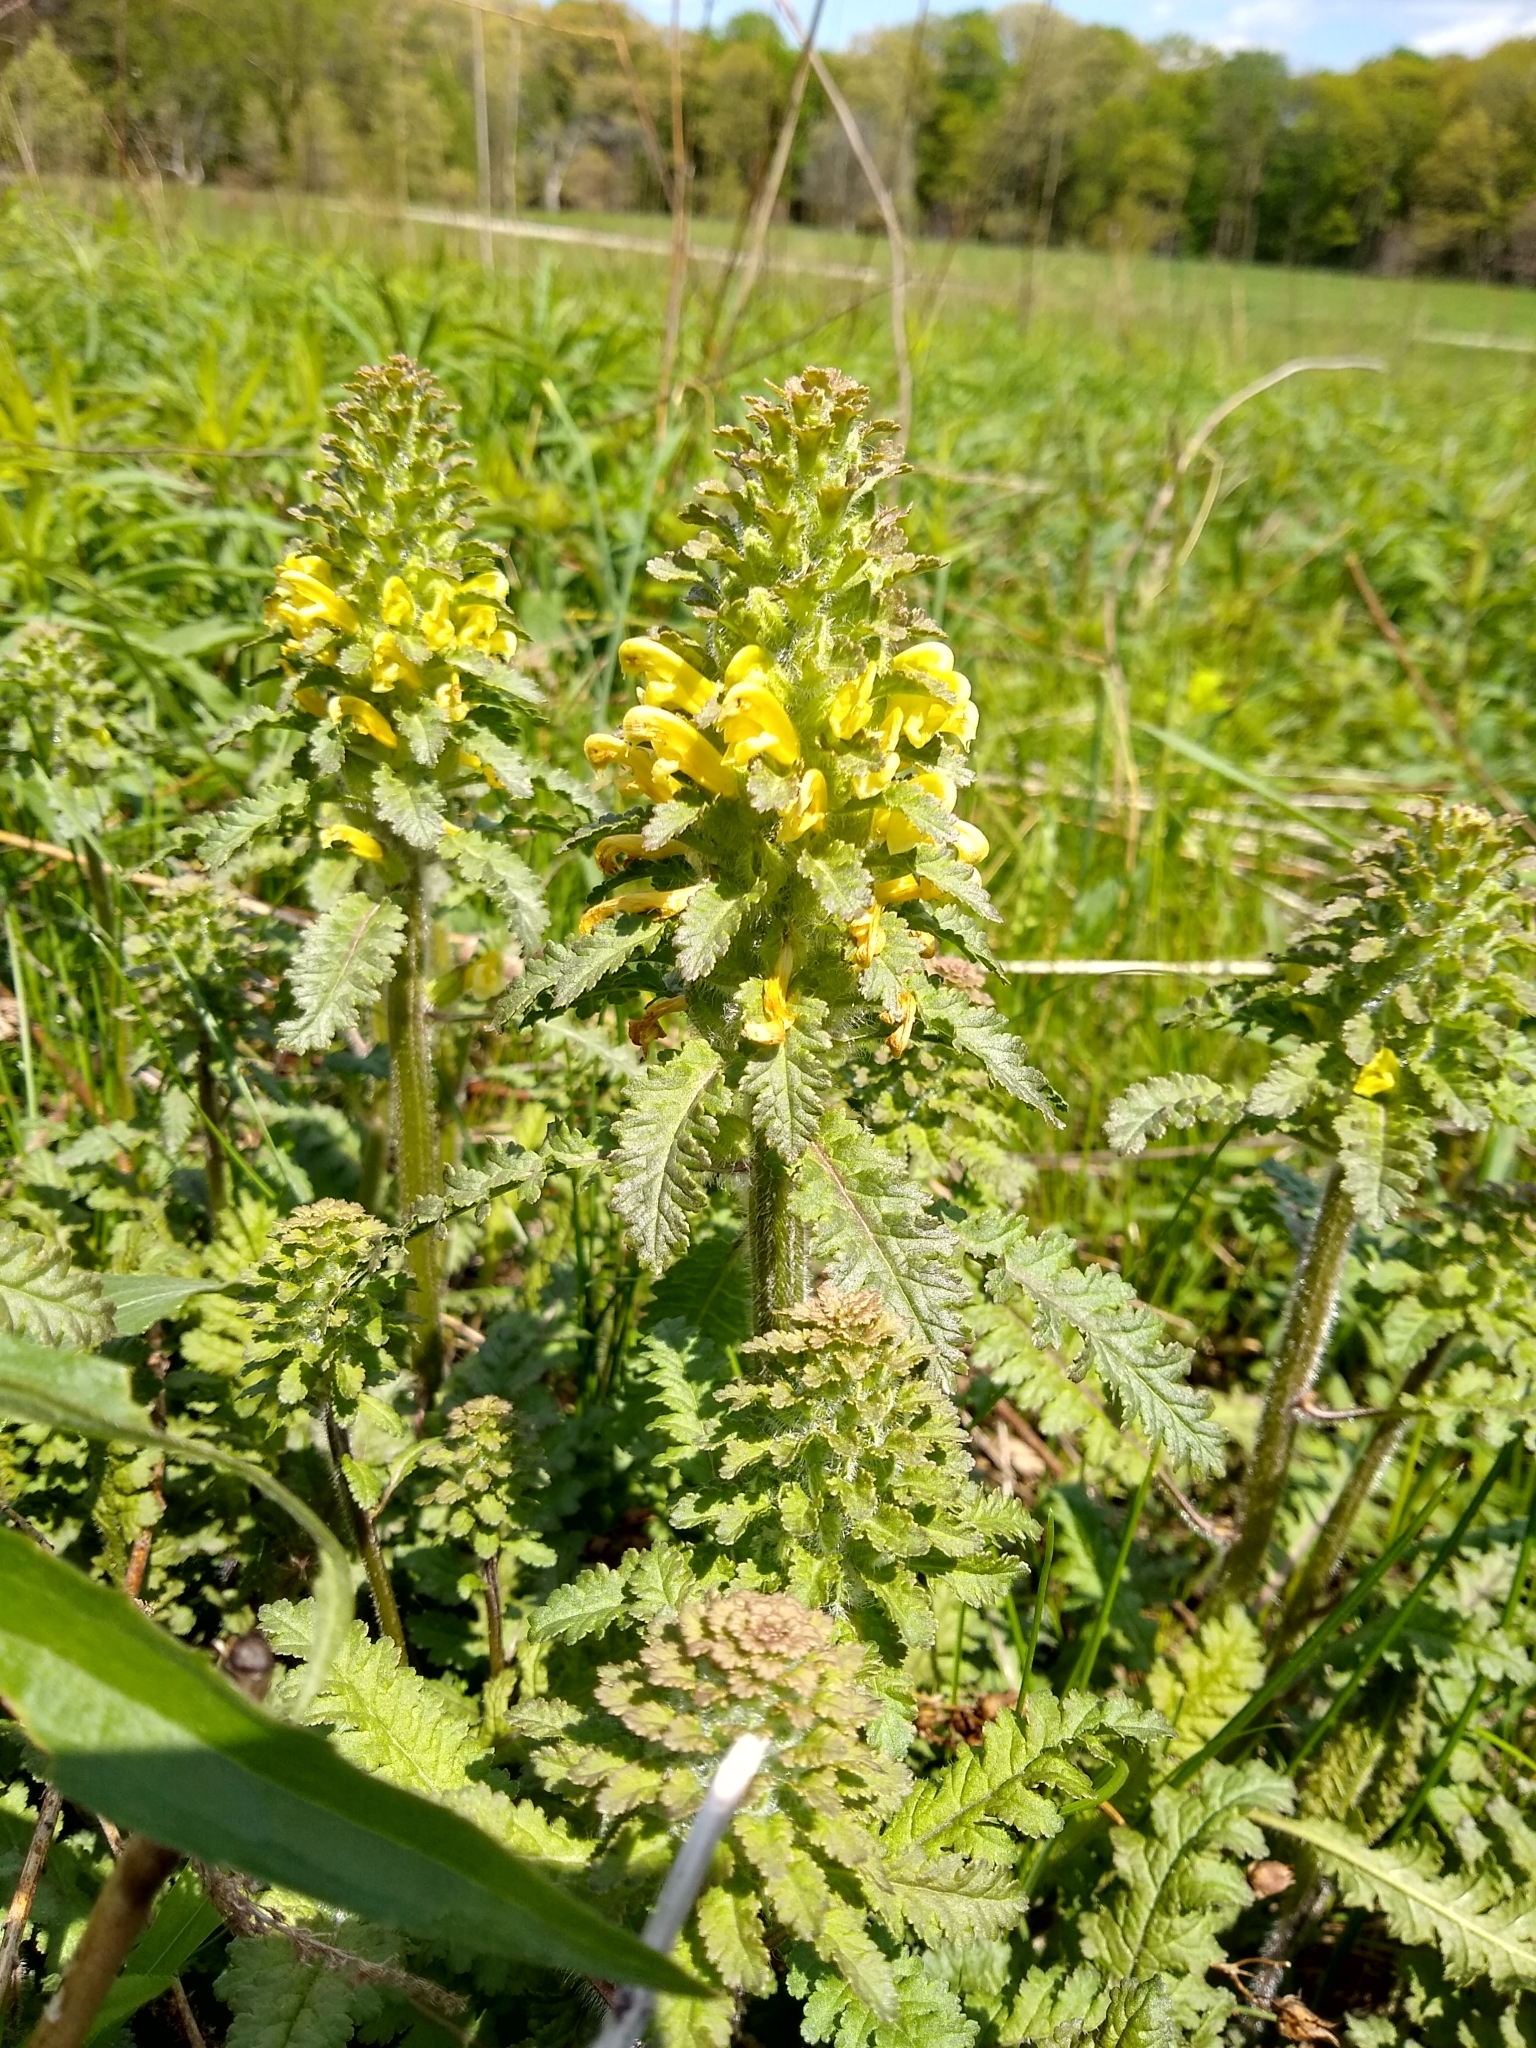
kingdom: Plantae
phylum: Tracheophyta
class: Magnoliopsida
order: Lamiales
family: Orobanchaceae
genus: Pedicularis
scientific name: Pedicularis canadensis
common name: Early lousewort
